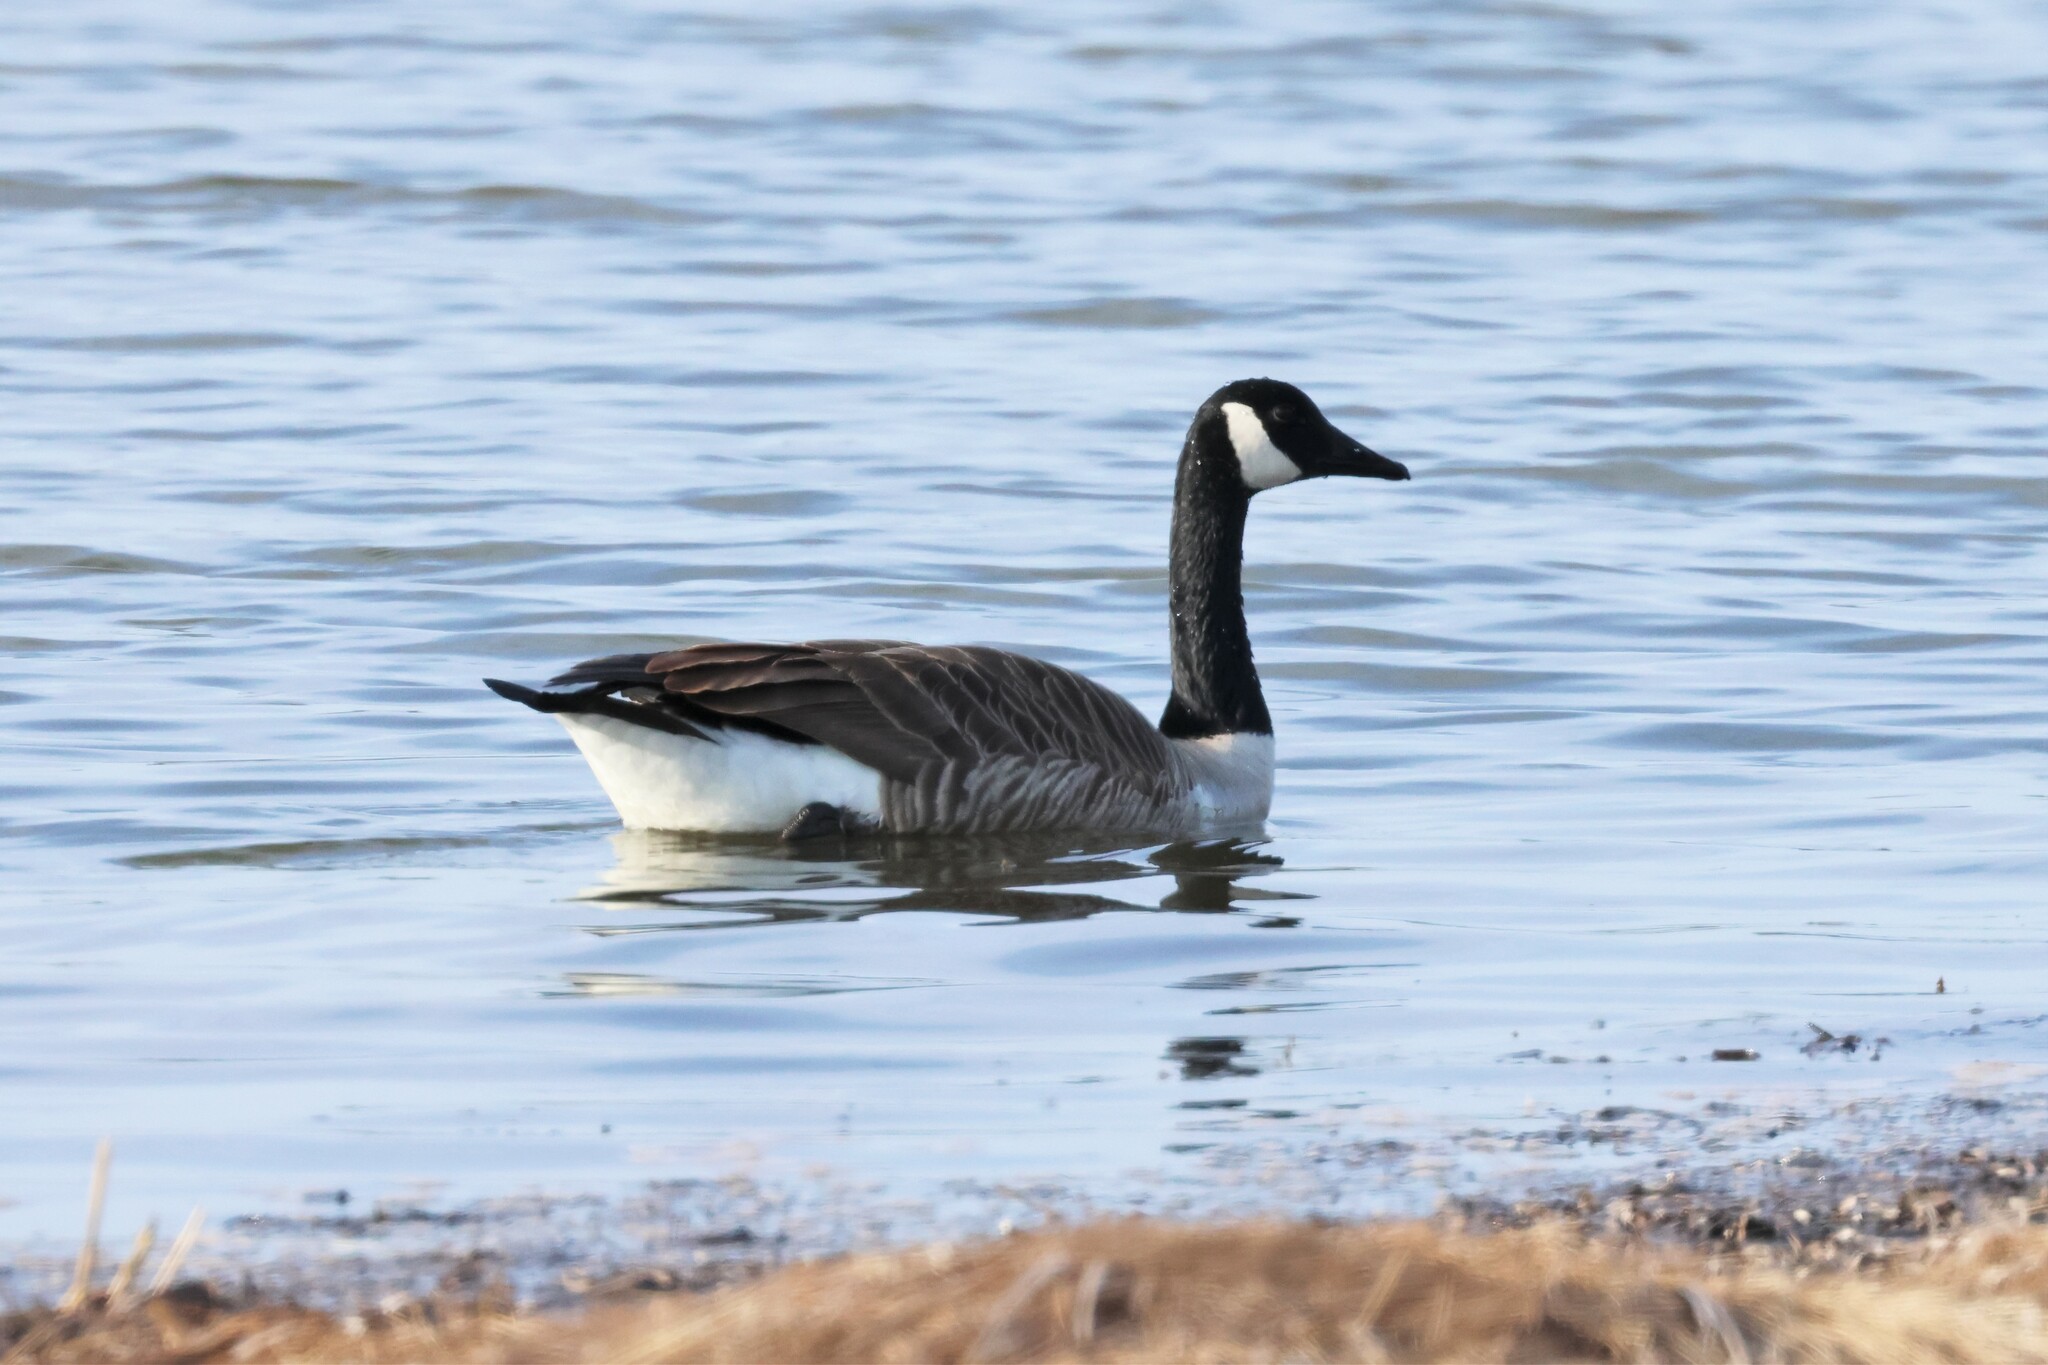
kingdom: Animalia
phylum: Chordata
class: Aves
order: Anseriformes
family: Anatidae
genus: Branta
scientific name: Branta canadensis
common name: Canada goose
